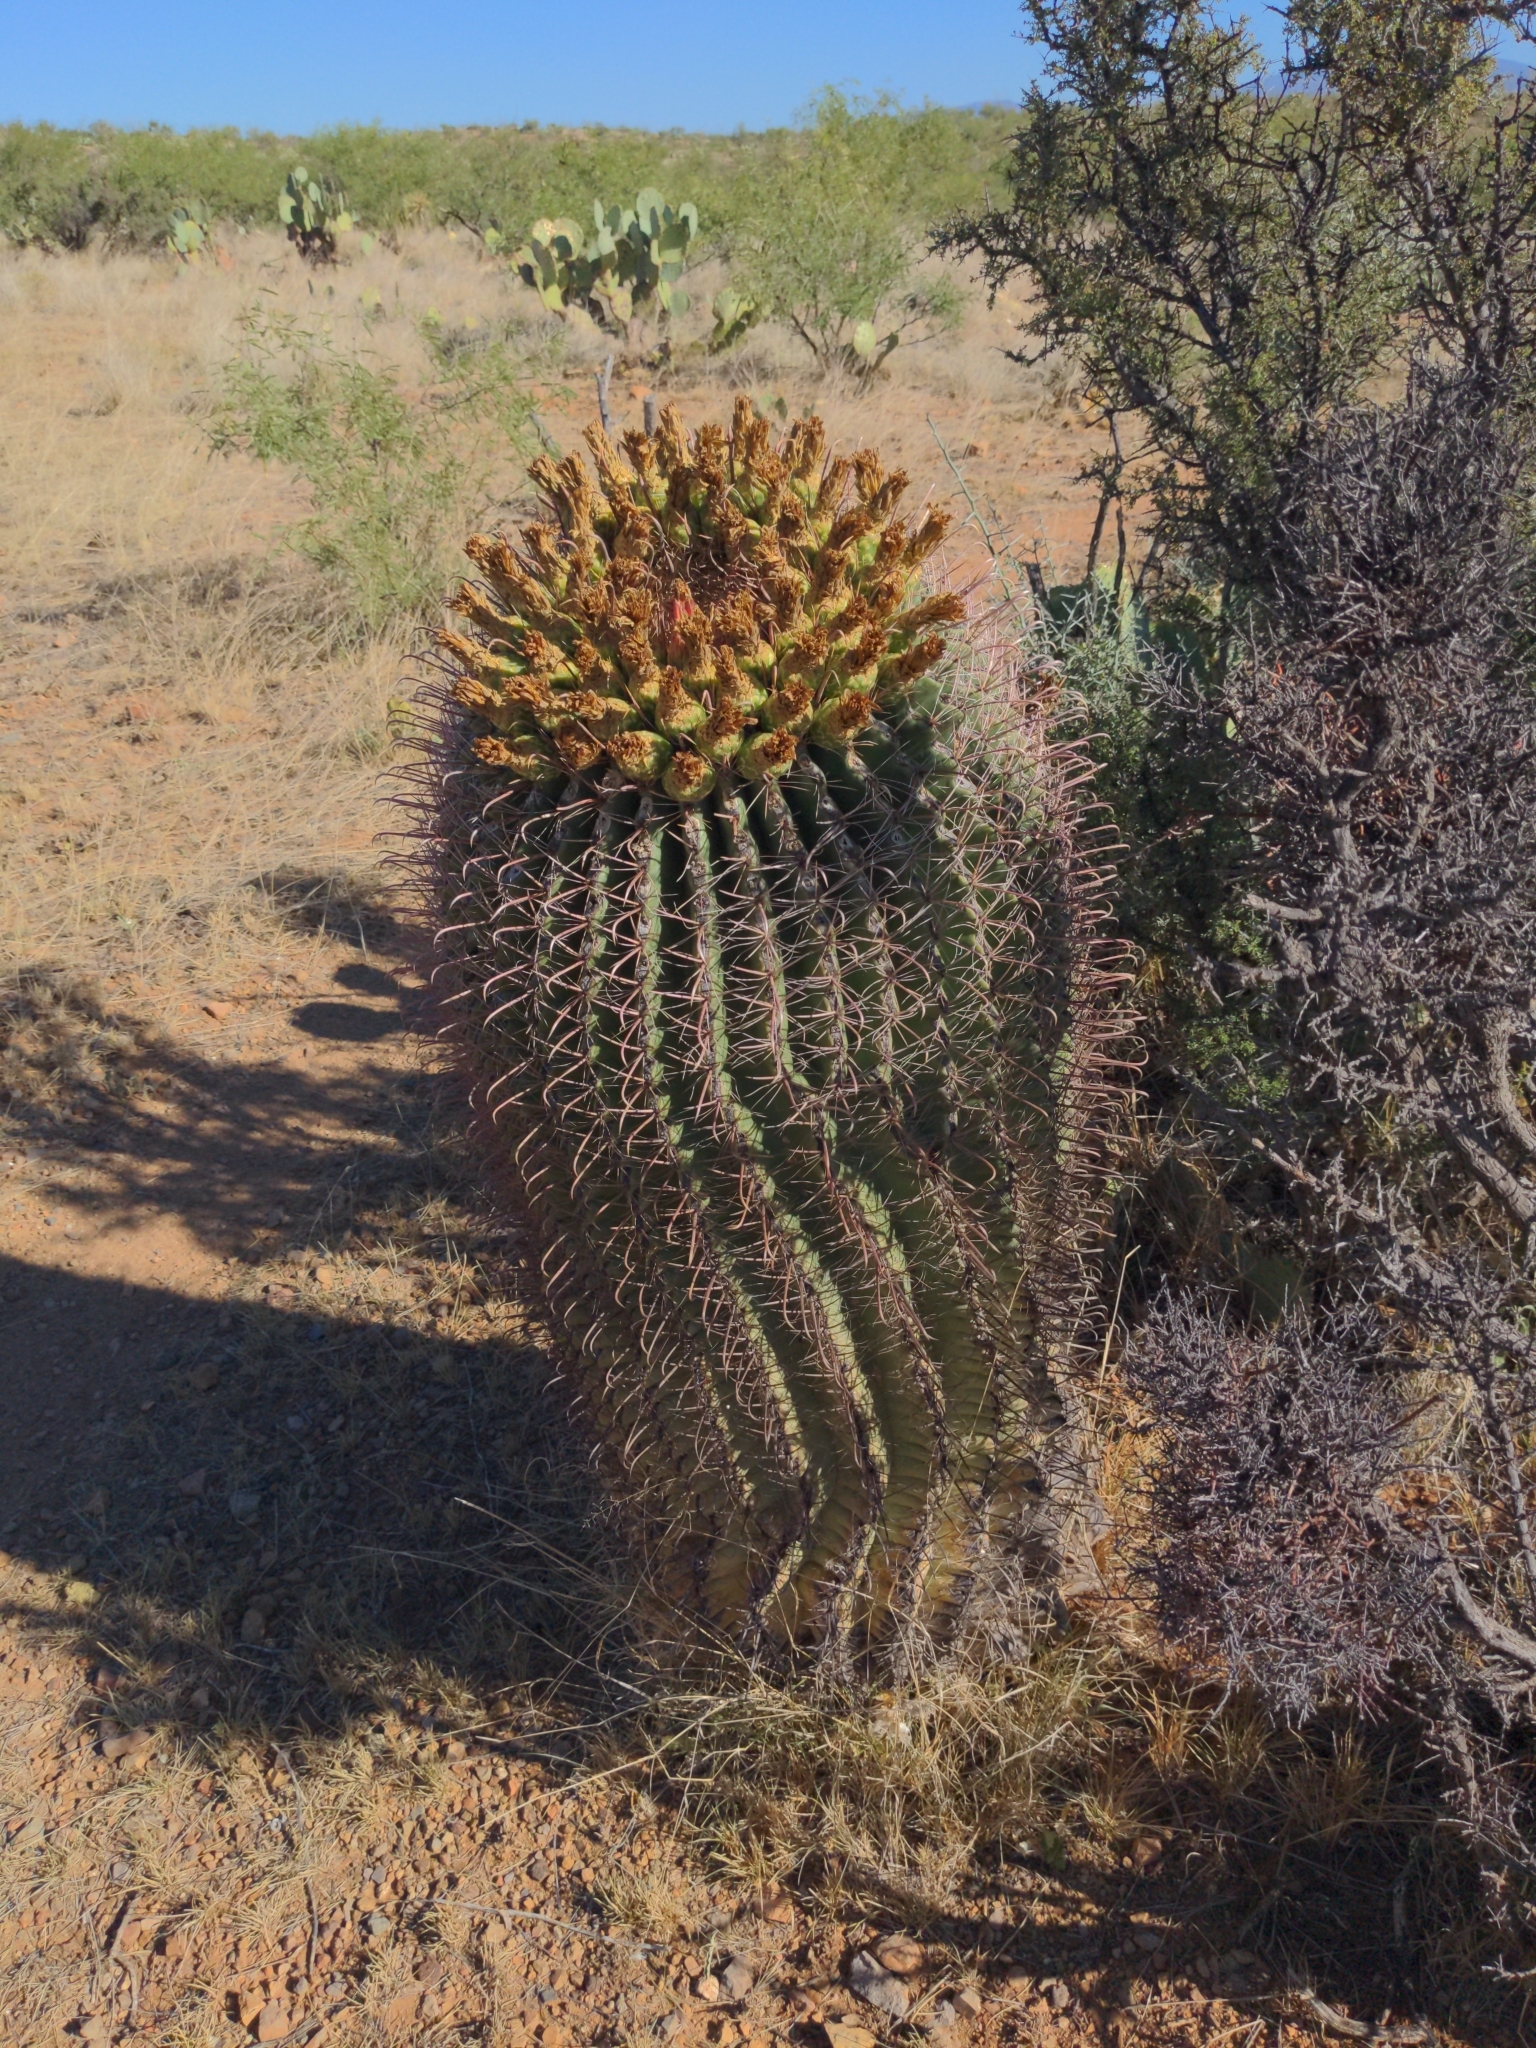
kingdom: Plantae
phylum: Tracheophyta
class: Magnoliopsida
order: Caryophyllales
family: Cactaceae
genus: Ferocactus
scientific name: Ferocactus wislizeni
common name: Candy barrel cactus
